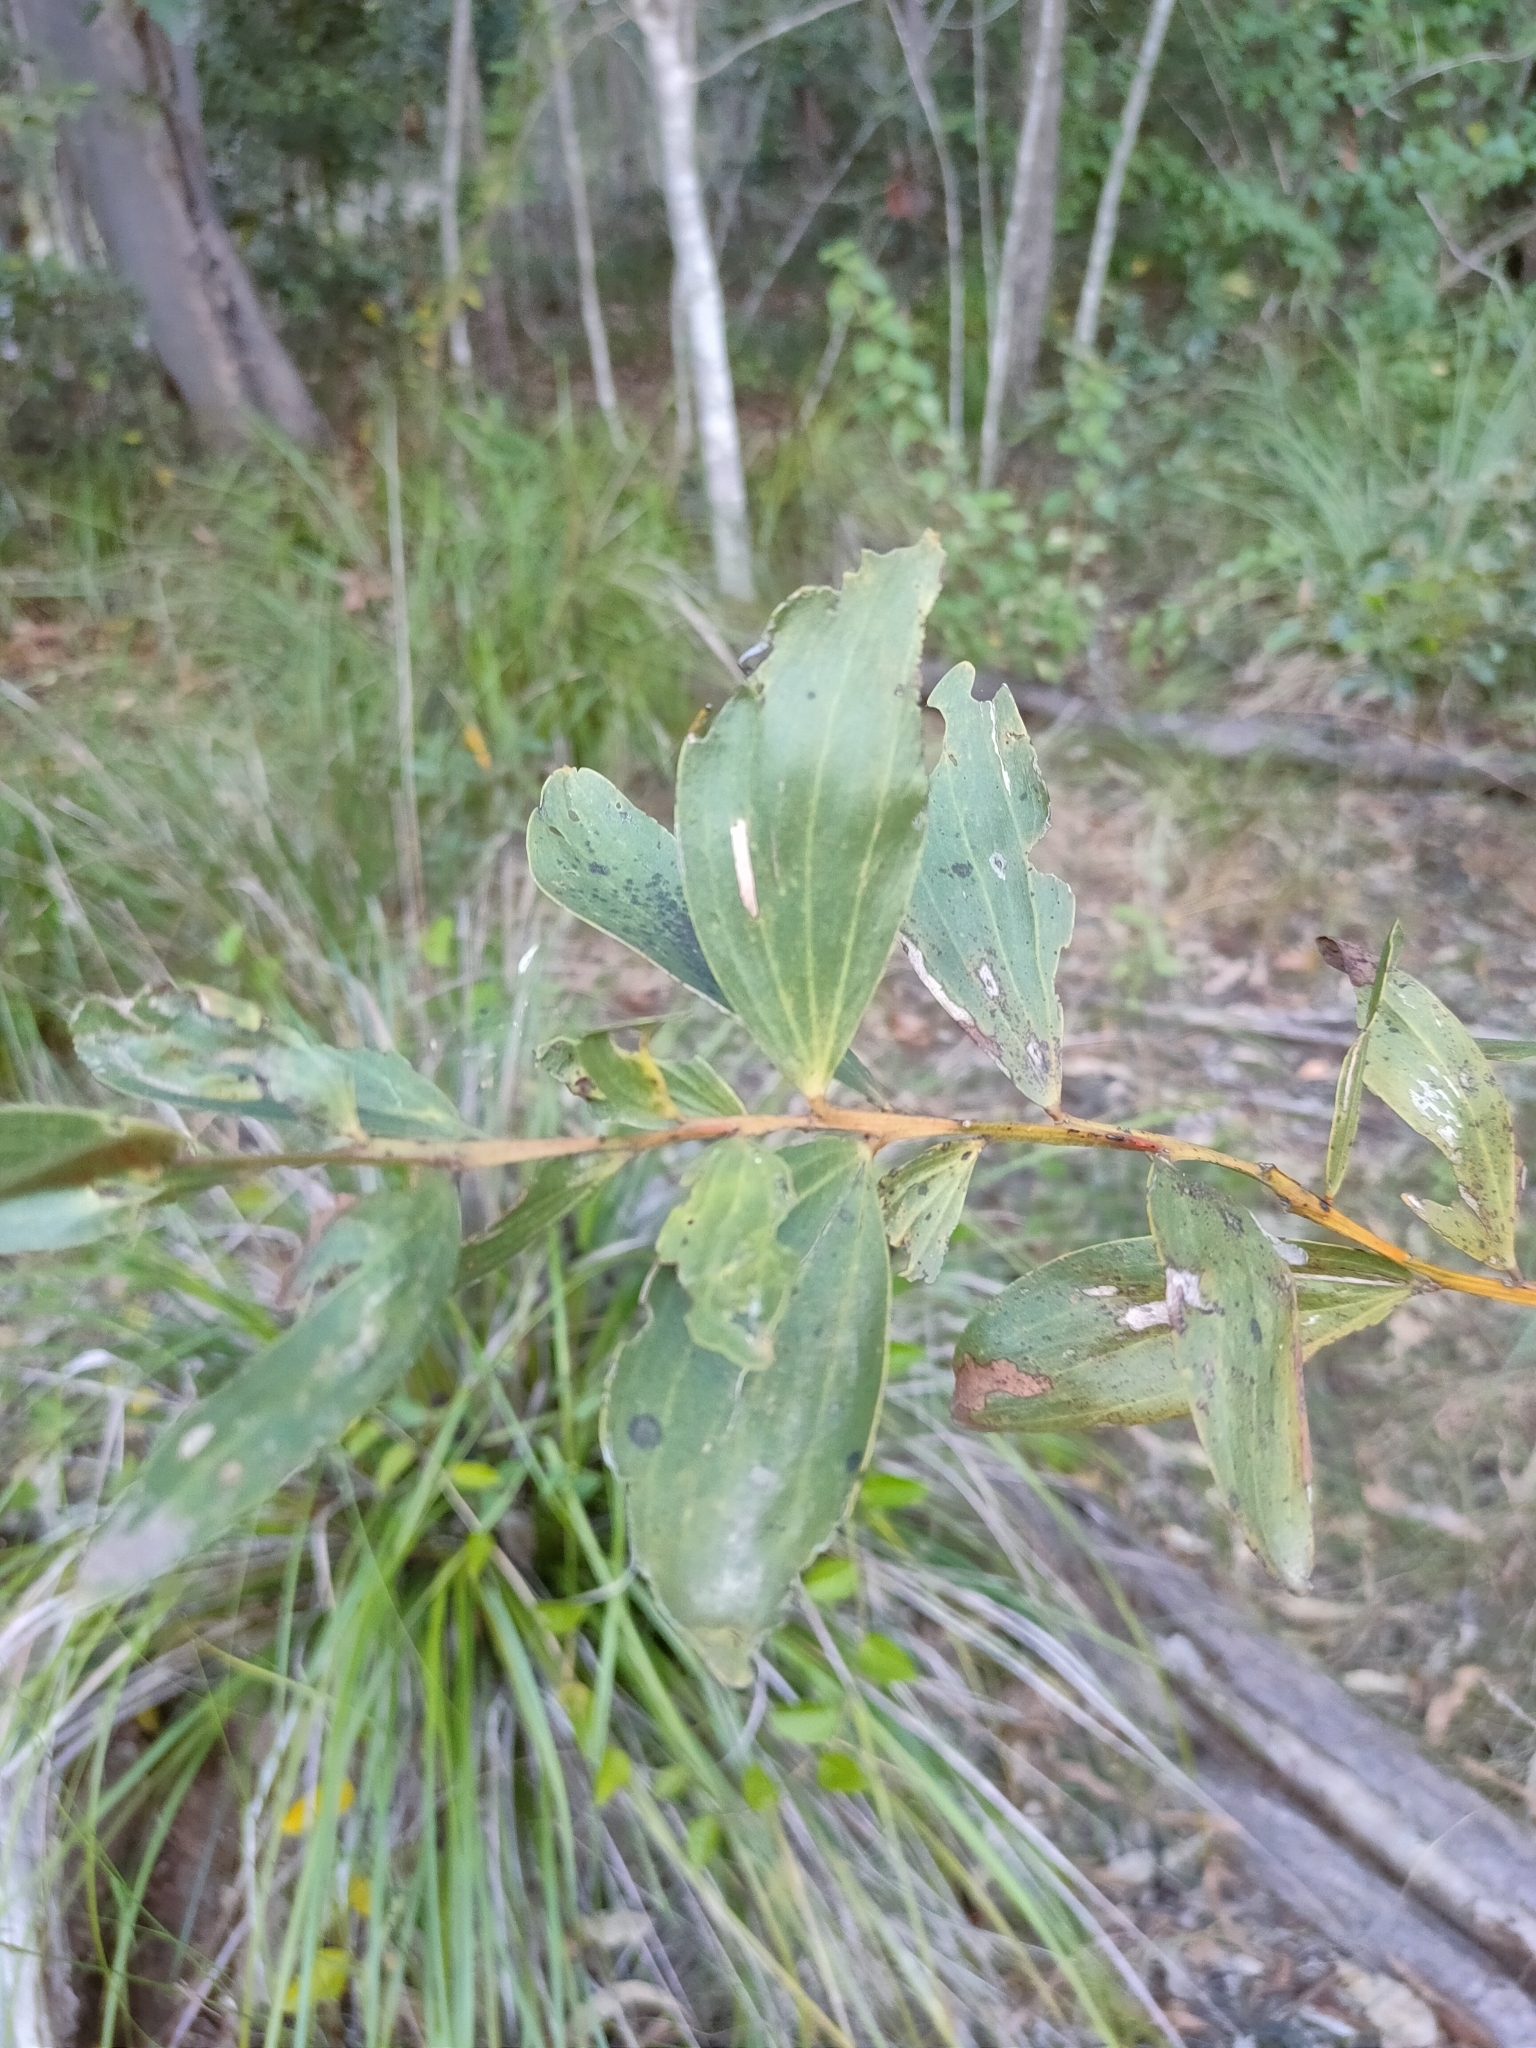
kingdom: Plantae
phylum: Tracheophyta
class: Magnoliopsida
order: Fabales
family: Fabaceae
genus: Acacia
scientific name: Acacia leiocalyx
